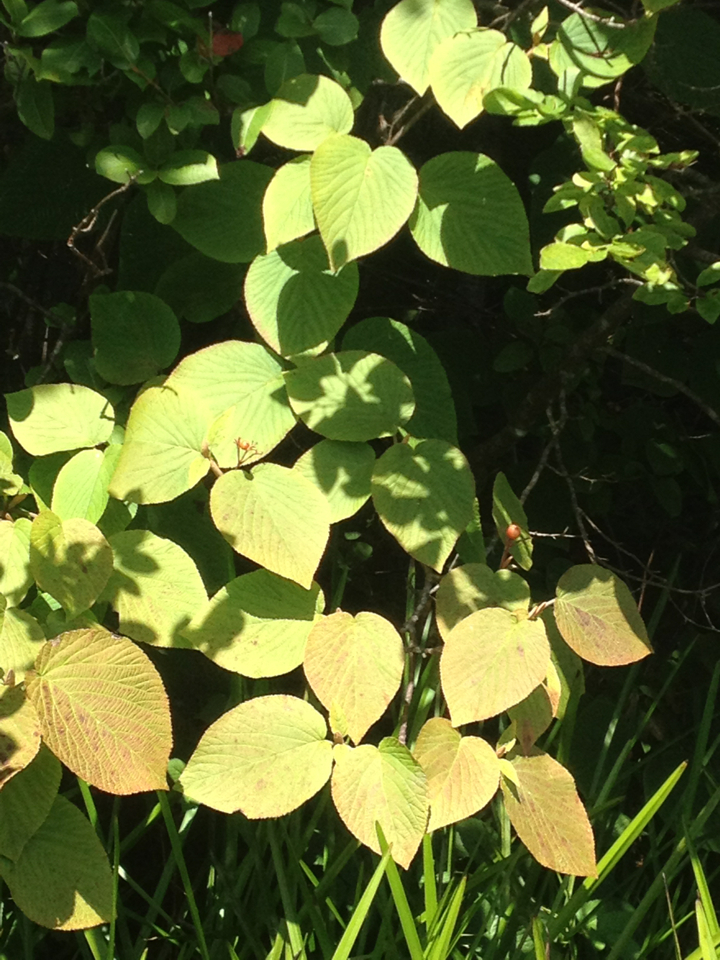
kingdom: Plantae
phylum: Tracheophyta
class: Magnoliopsida
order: Dipsacales
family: Viburnaceae
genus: Viburnum
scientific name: Viburnum lantanoides
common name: Hobblebush
